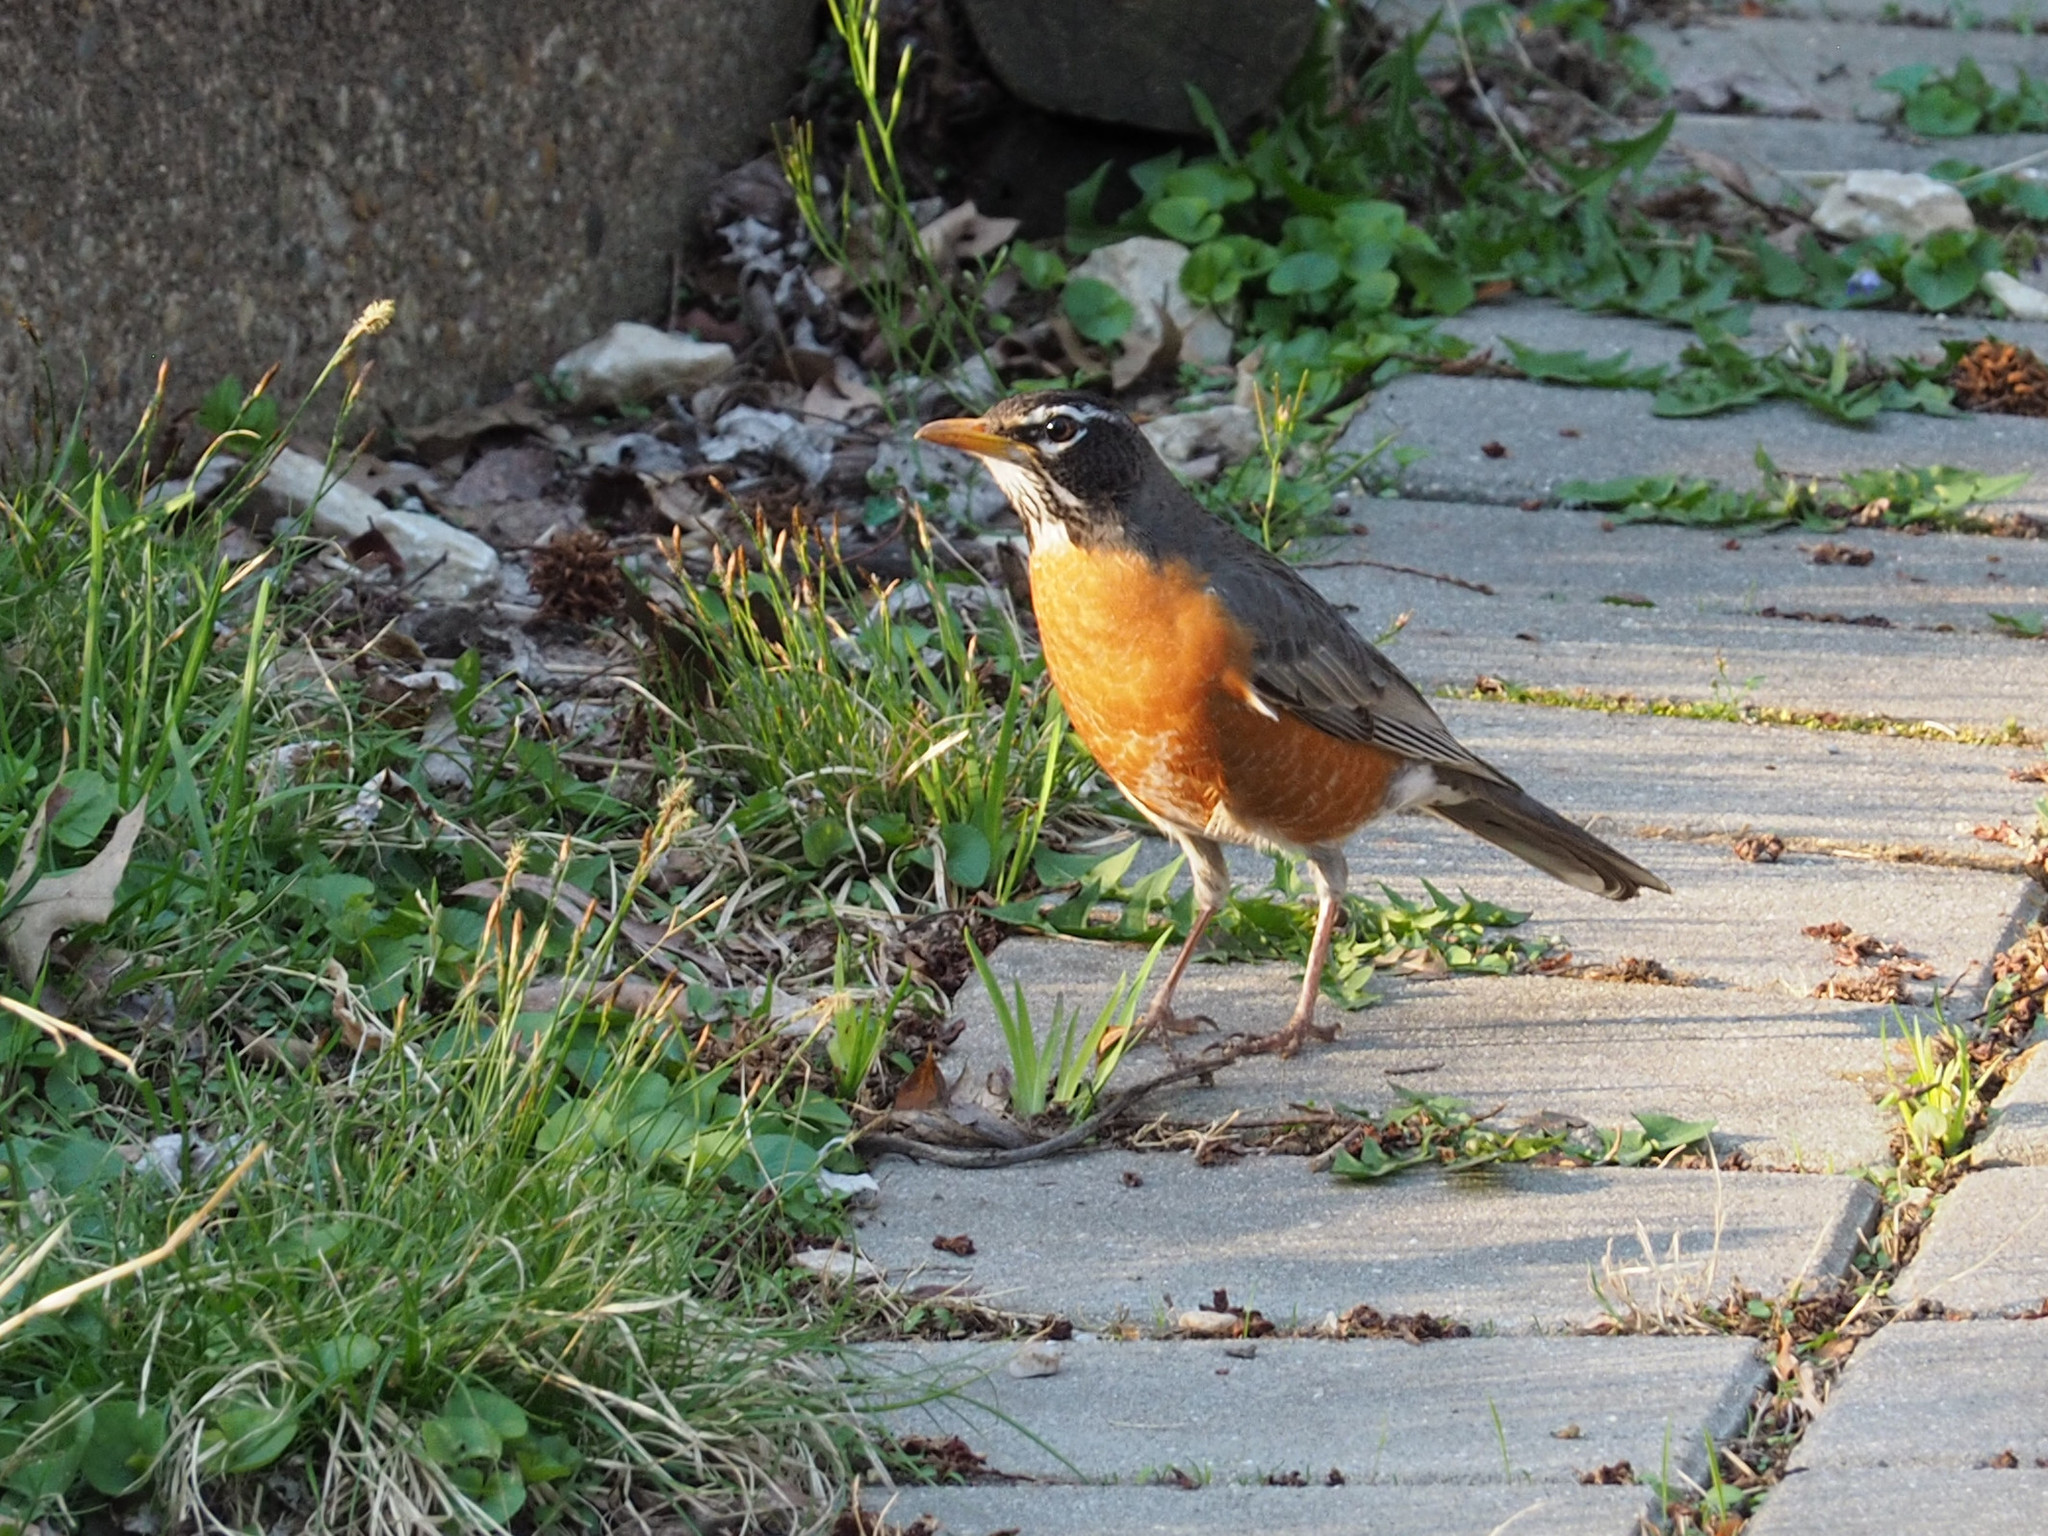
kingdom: Animalia
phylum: Chordata
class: Aves
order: Passeriformes
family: Turdidae
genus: Turdus
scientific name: Turdus migratorius
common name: American robin
